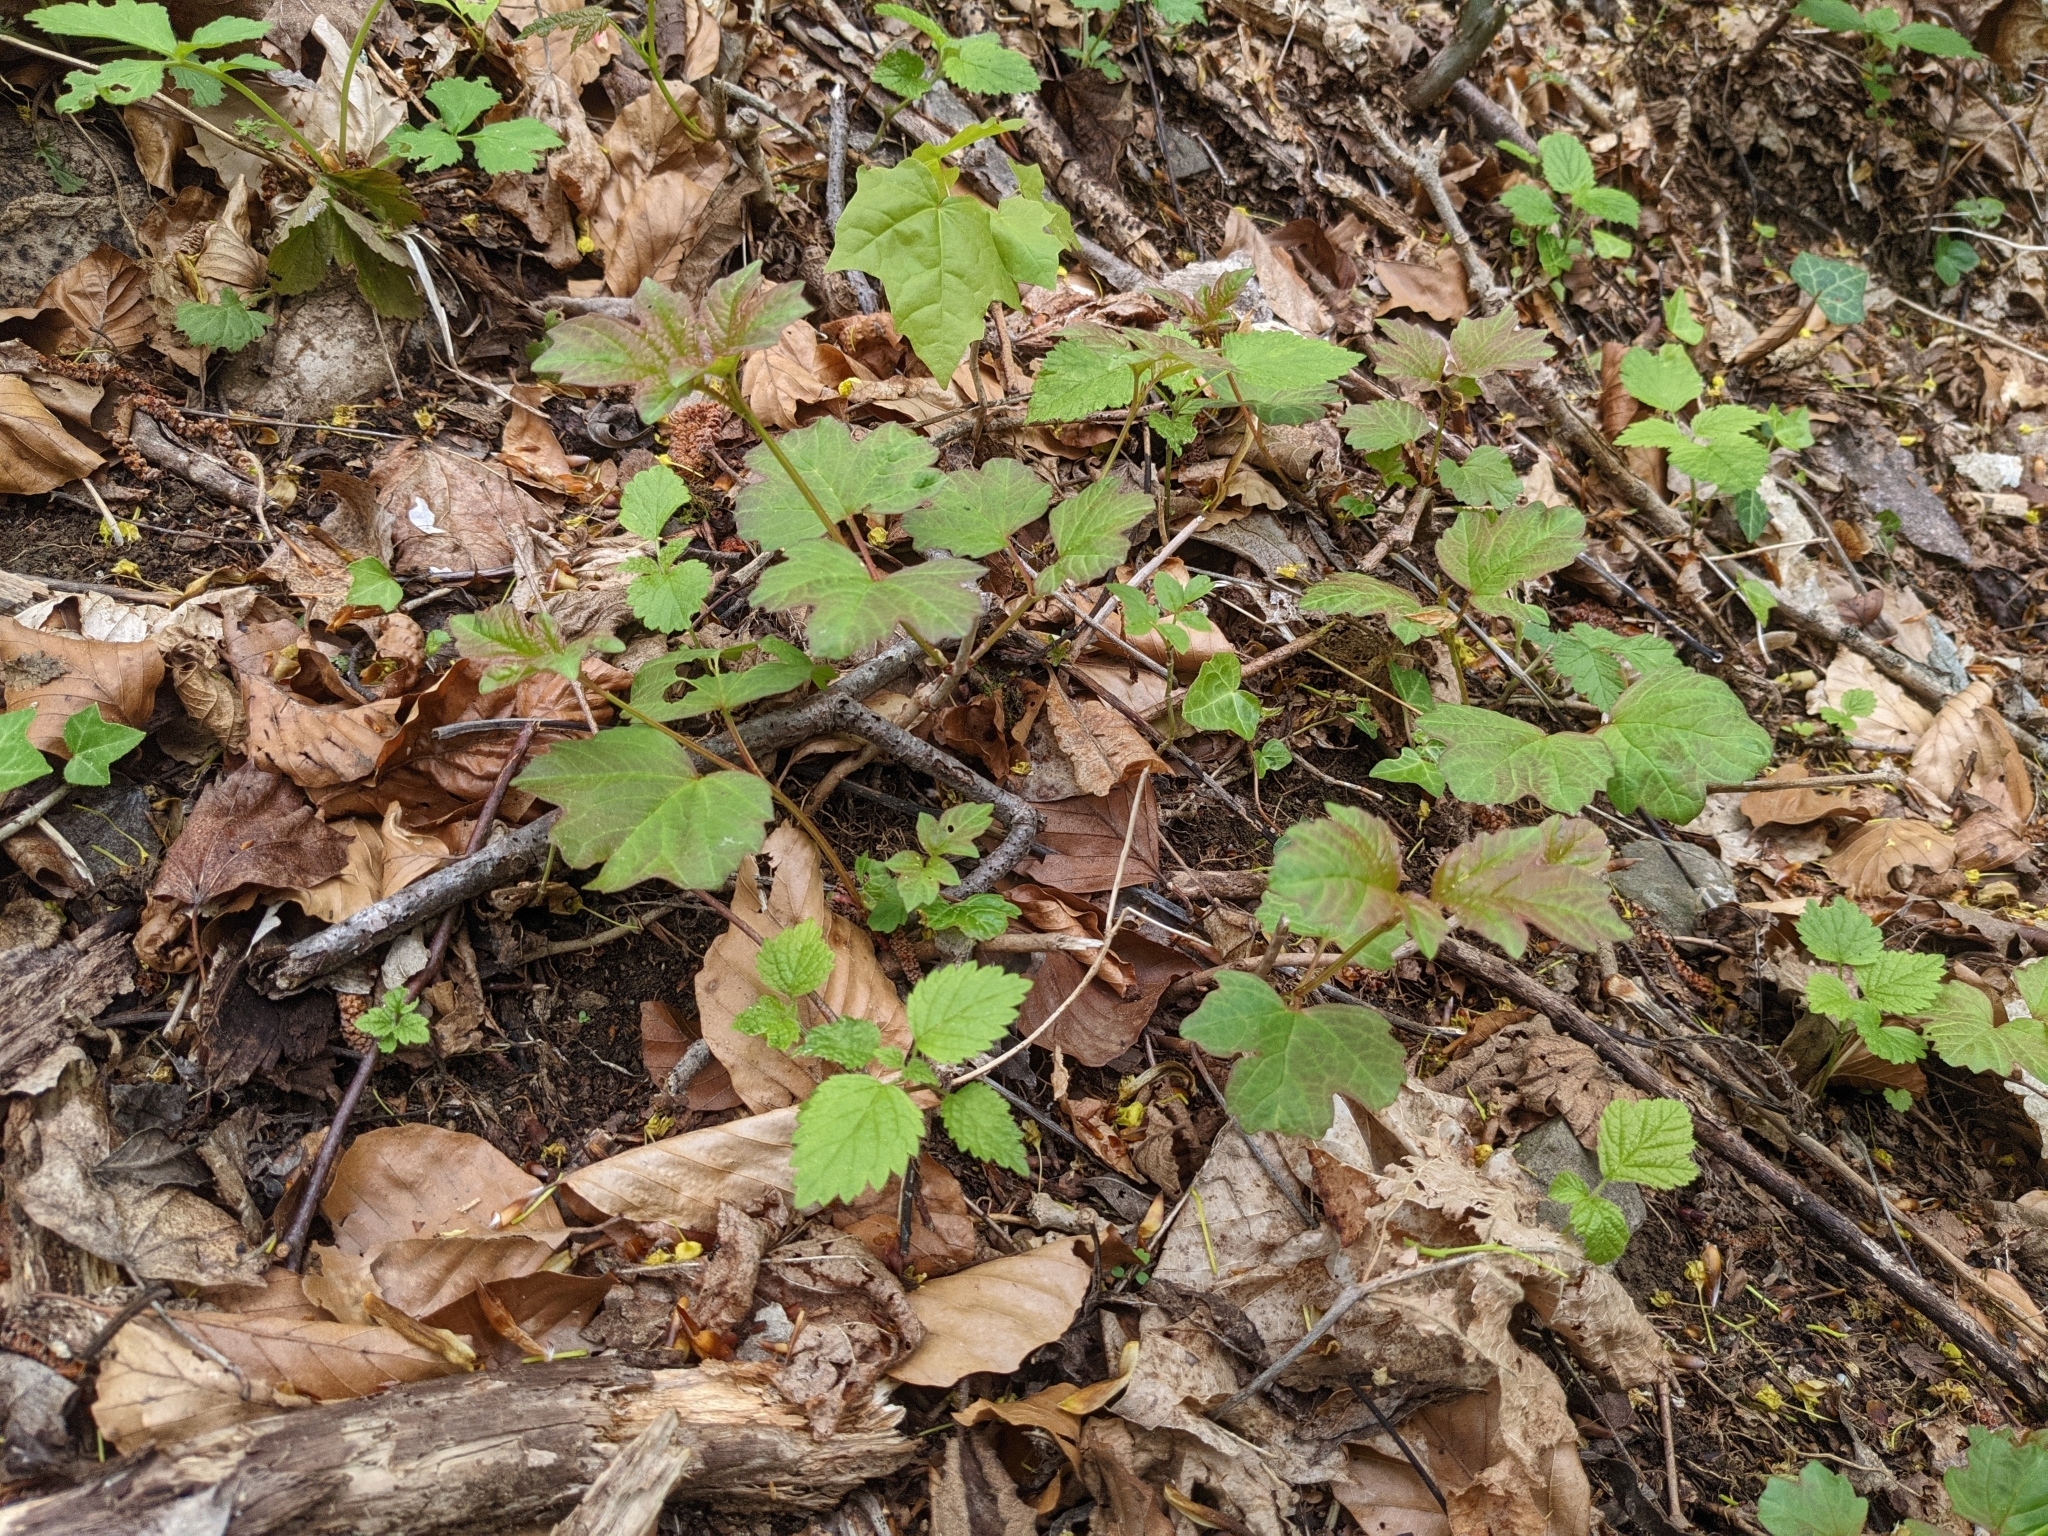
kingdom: Plantae
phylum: Tracheophyta
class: Magnoliopsida
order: Dipsacales
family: Viburnaceae
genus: Viburnum
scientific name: Viburnum opulus
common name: Guelder-rose
